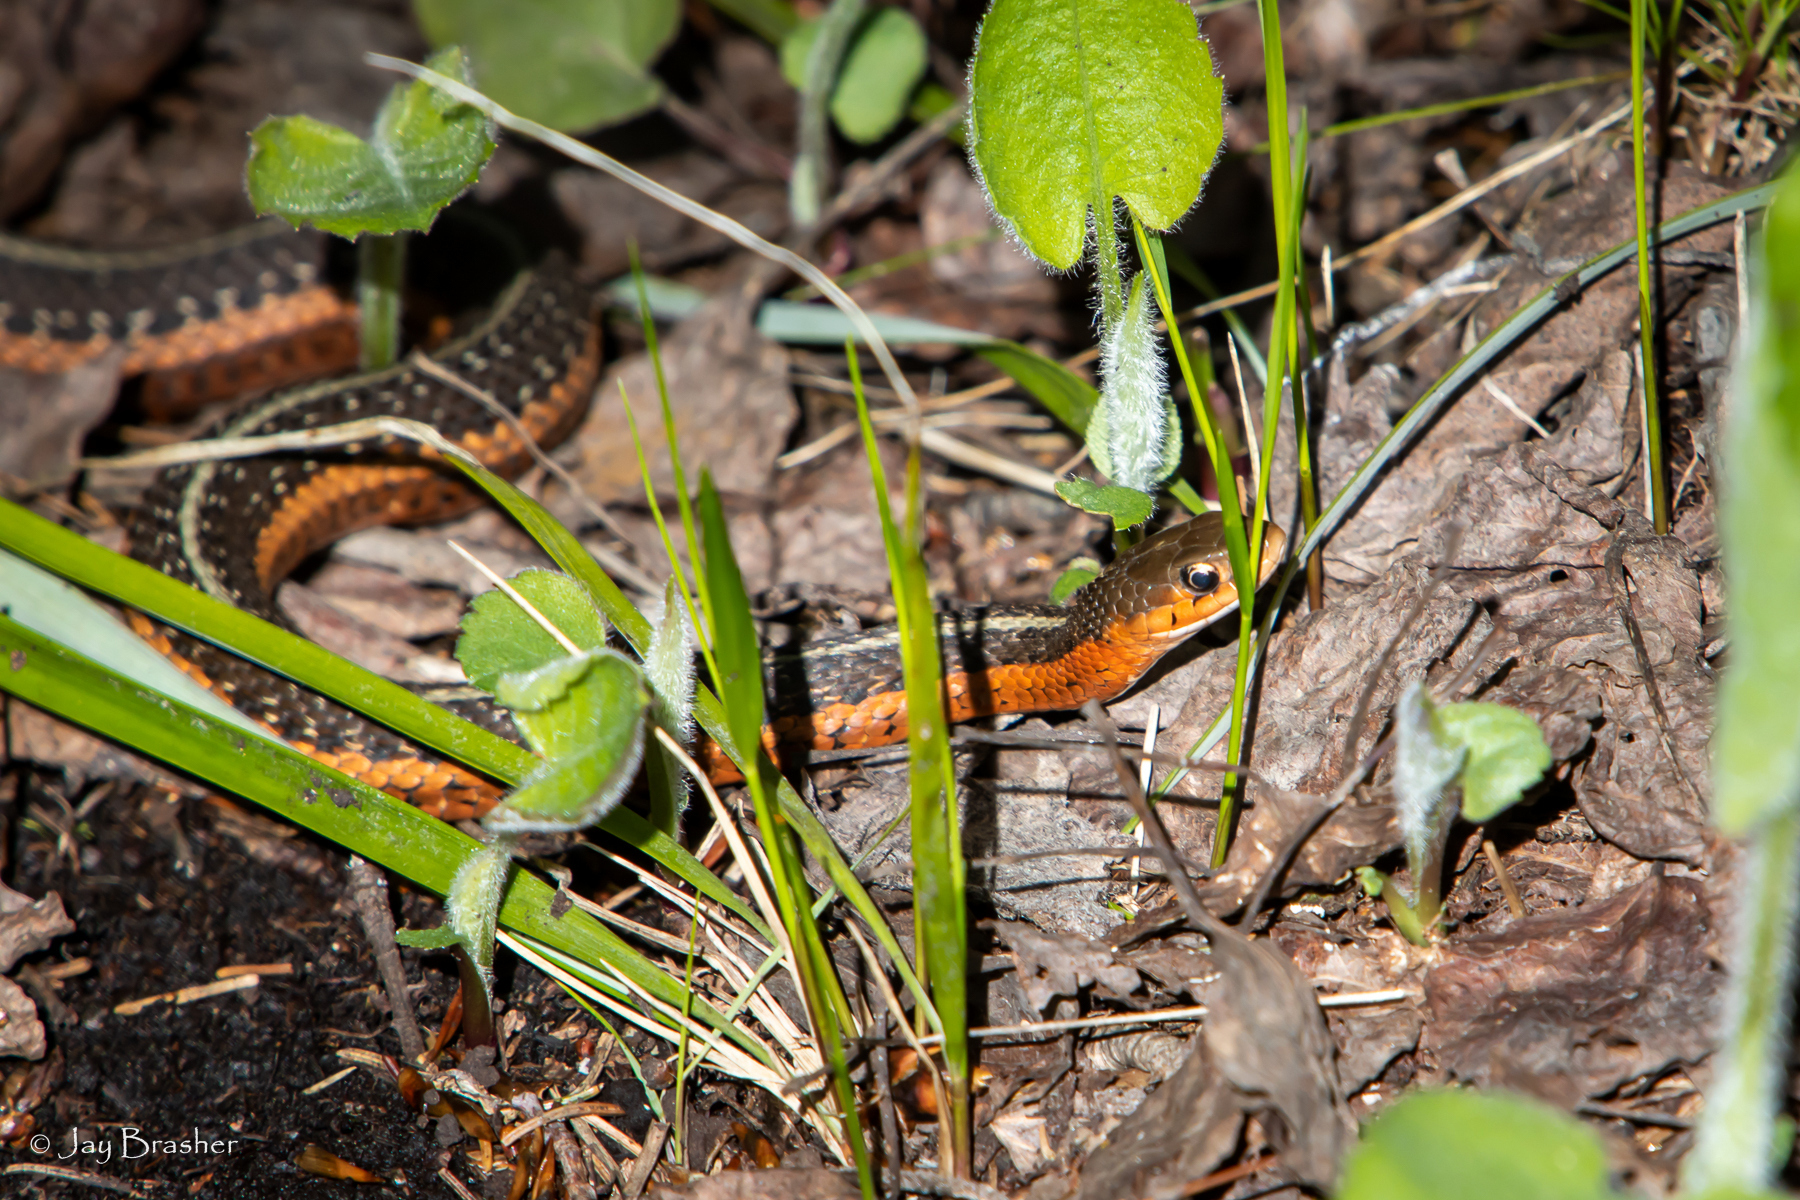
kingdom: Animalia
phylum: Chordata
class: Squamata
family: Colubridae
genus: Thamnophis
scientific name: Thamnophis sirtalis
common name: Common garter snake
